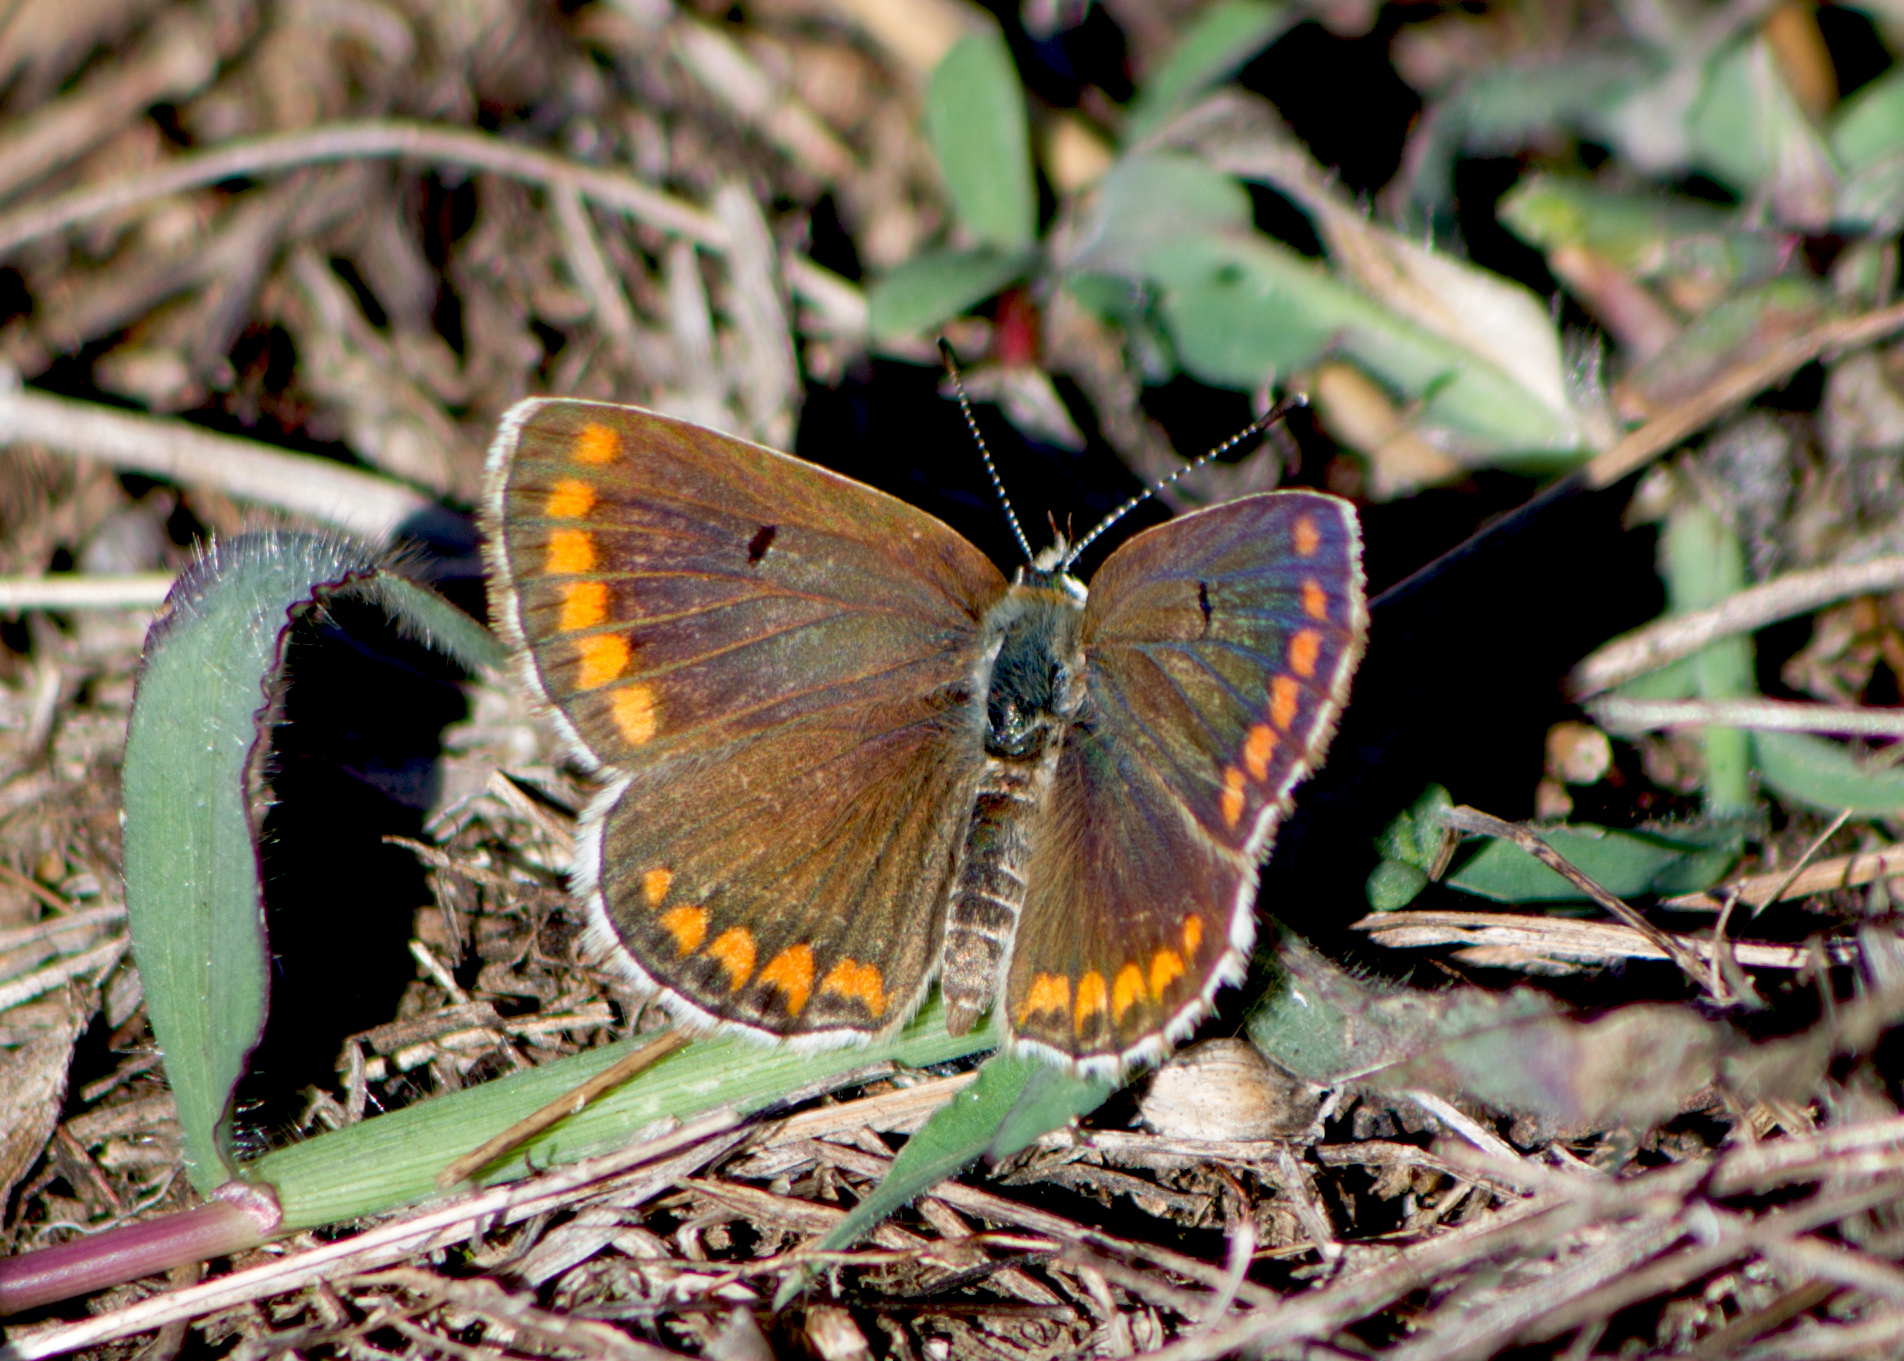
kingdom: Animalia
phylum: Arthropoda
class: Insecta
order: Lepidoptera
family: Lycaenidae
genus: Aricia
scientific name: Aricia agestis
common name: Brown argus
